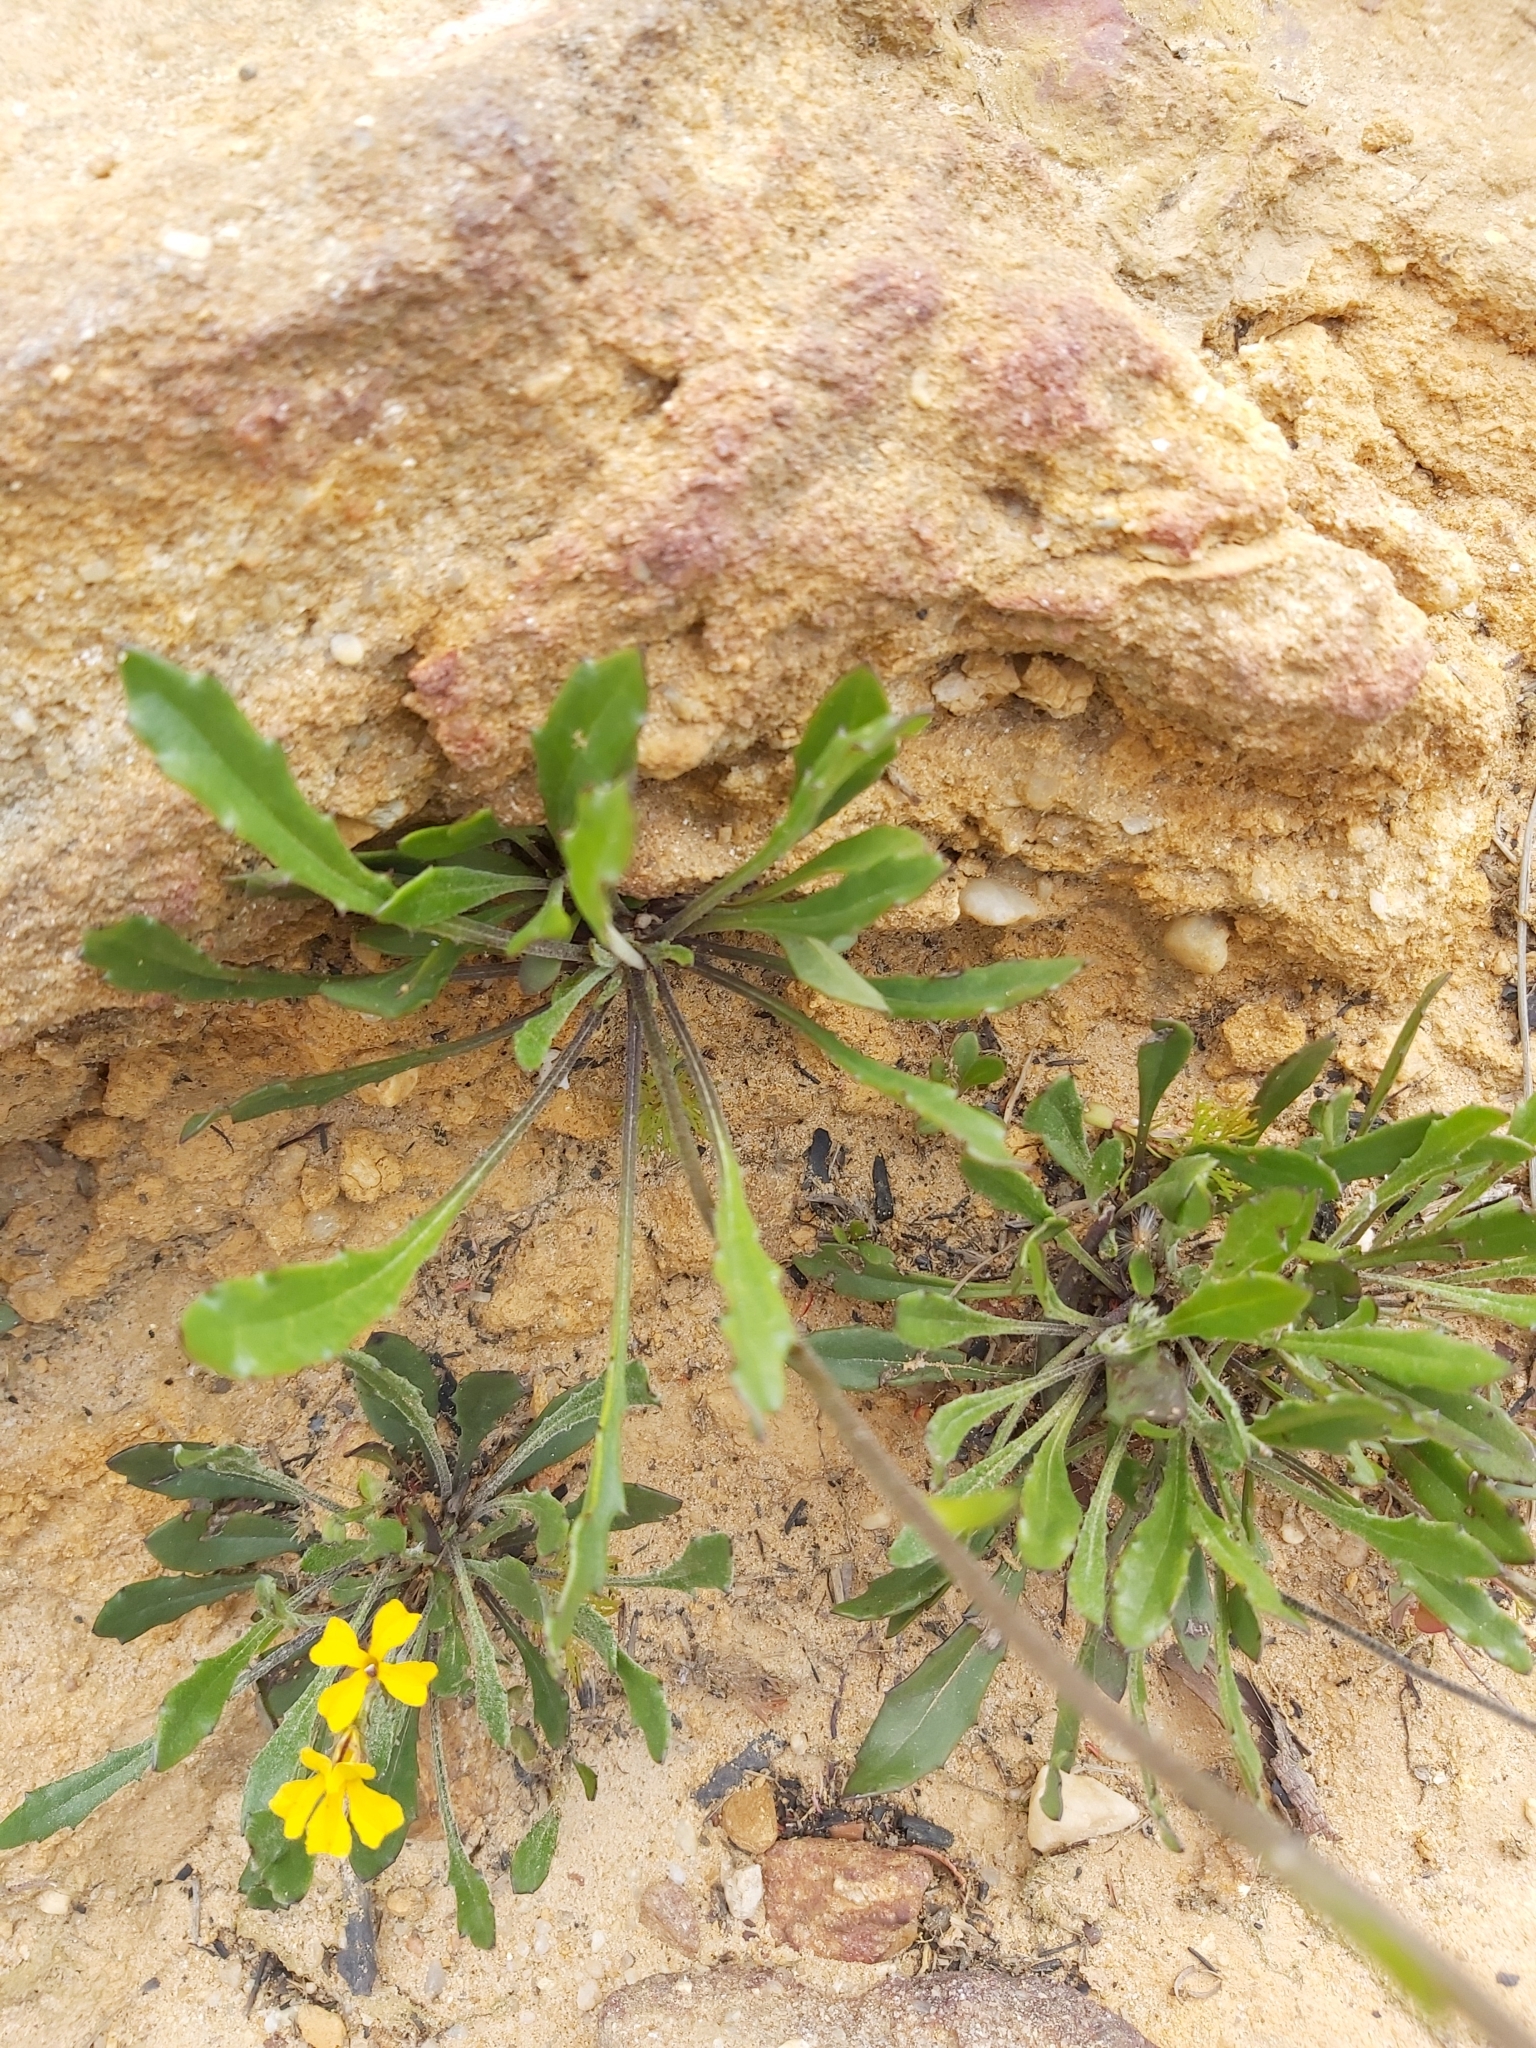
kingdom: Plantae
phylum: Tracheophyta
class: Magnoliopsida
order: Asterales
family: Goodeniaceae
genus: Goodenia
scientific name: Goodenia bellidifolia
